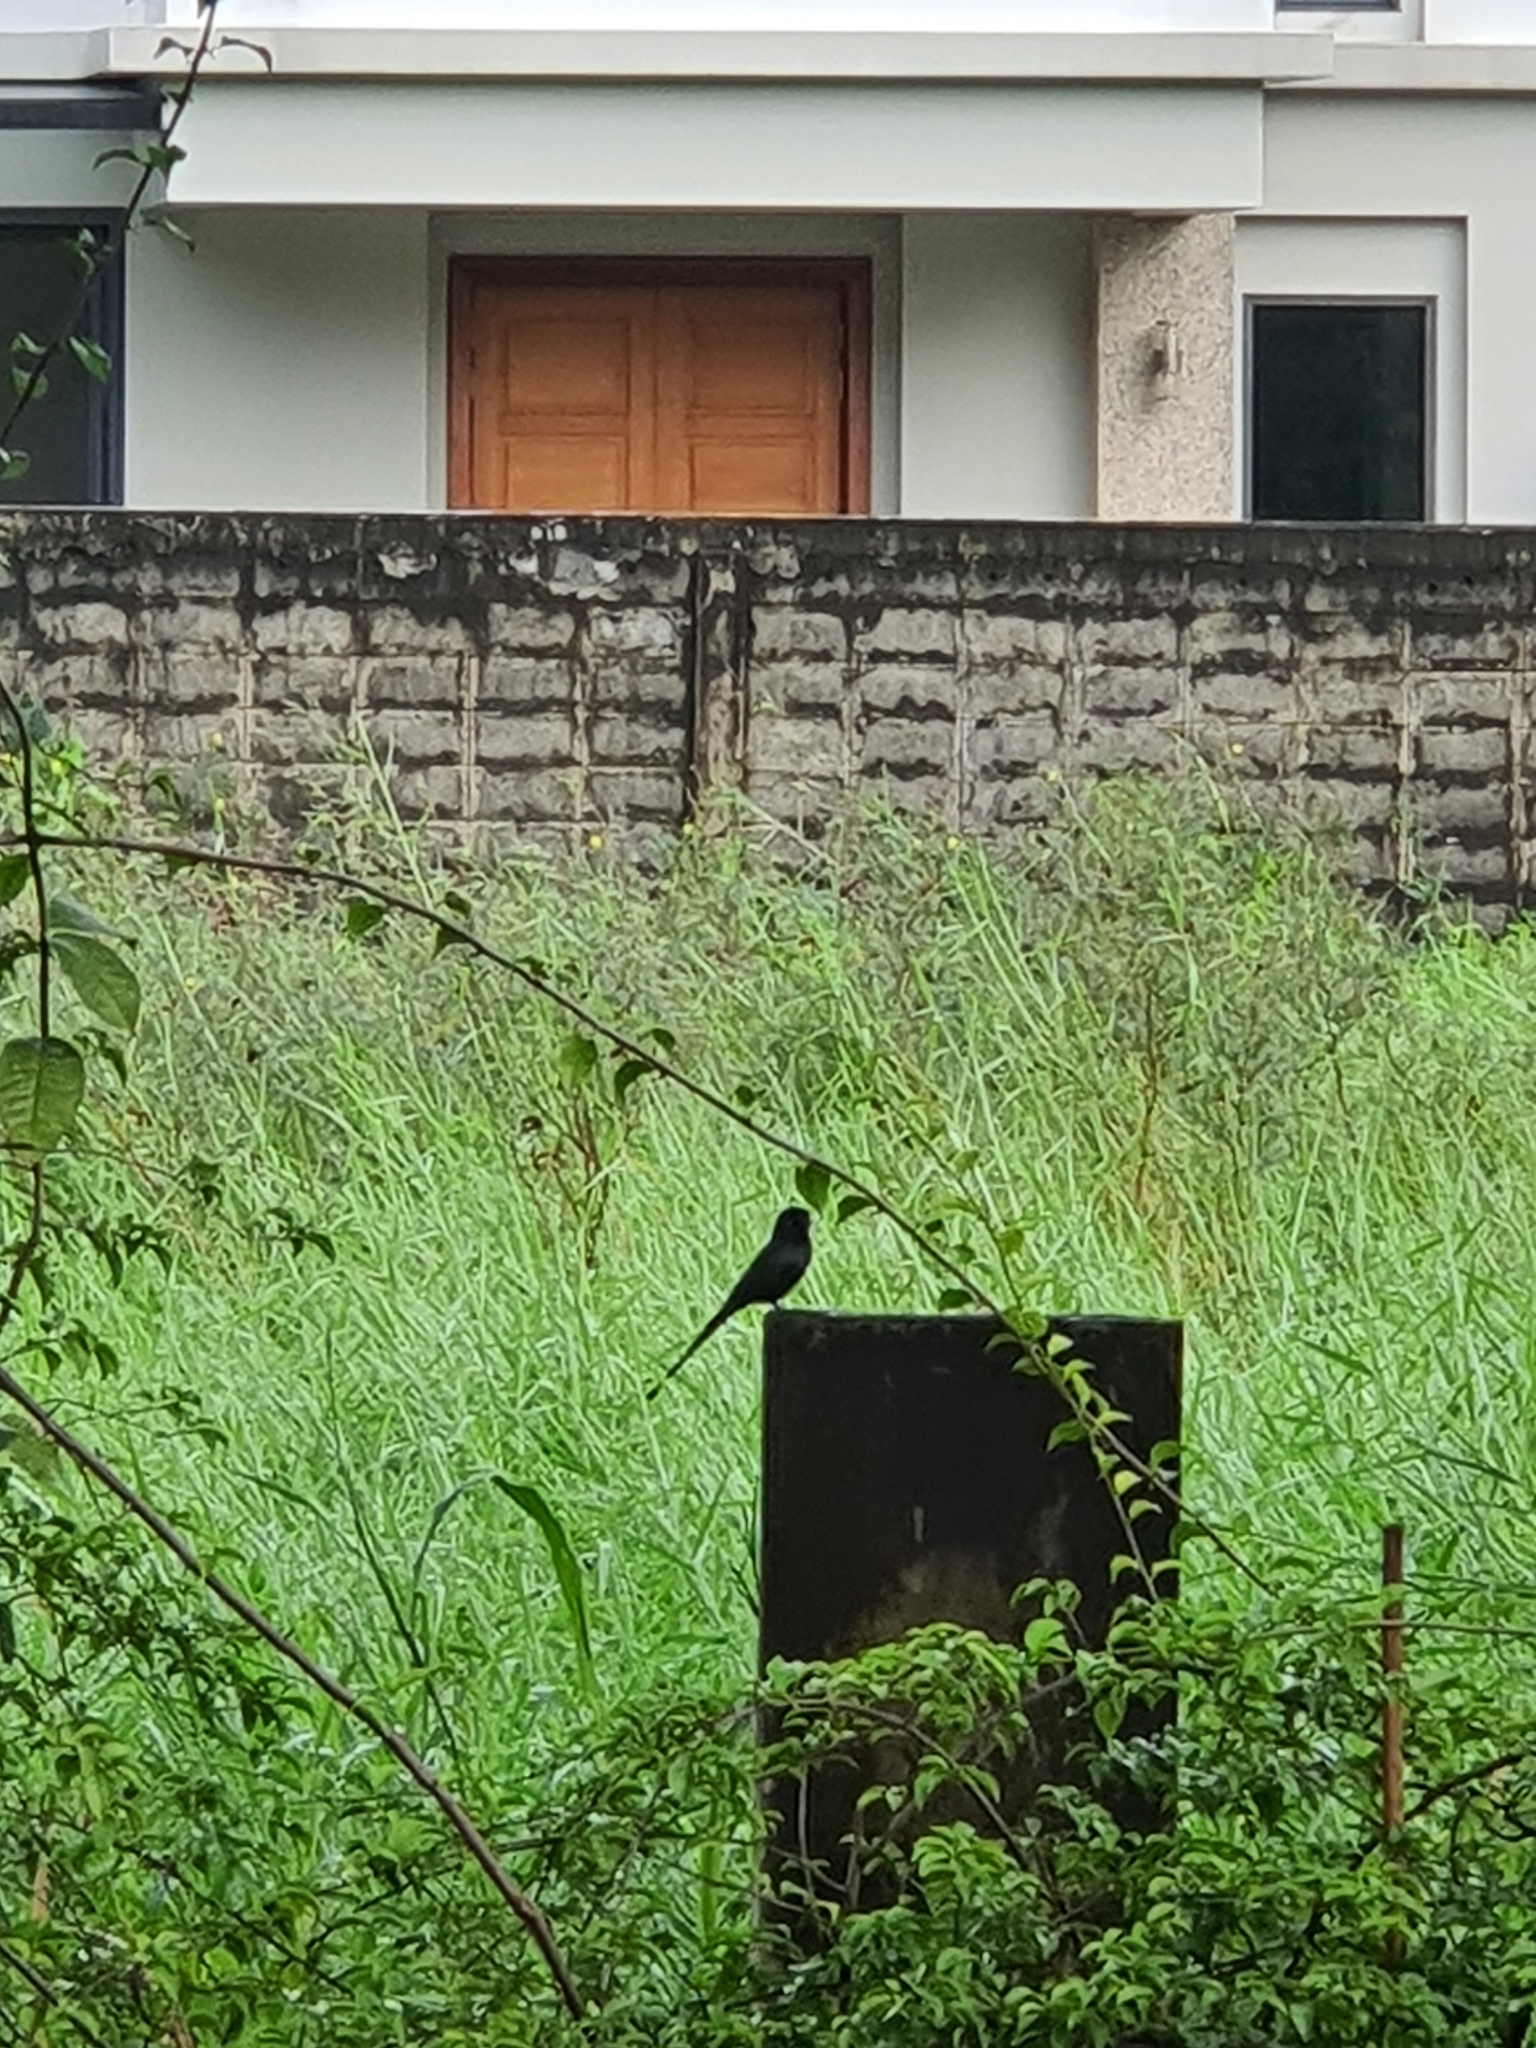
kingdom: Animalia
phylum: Chordata
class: Aves
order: Passeriformes
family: Dicruridae
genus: Dicrurus
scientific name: Dicrurus macrocercus
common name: Black drongo
